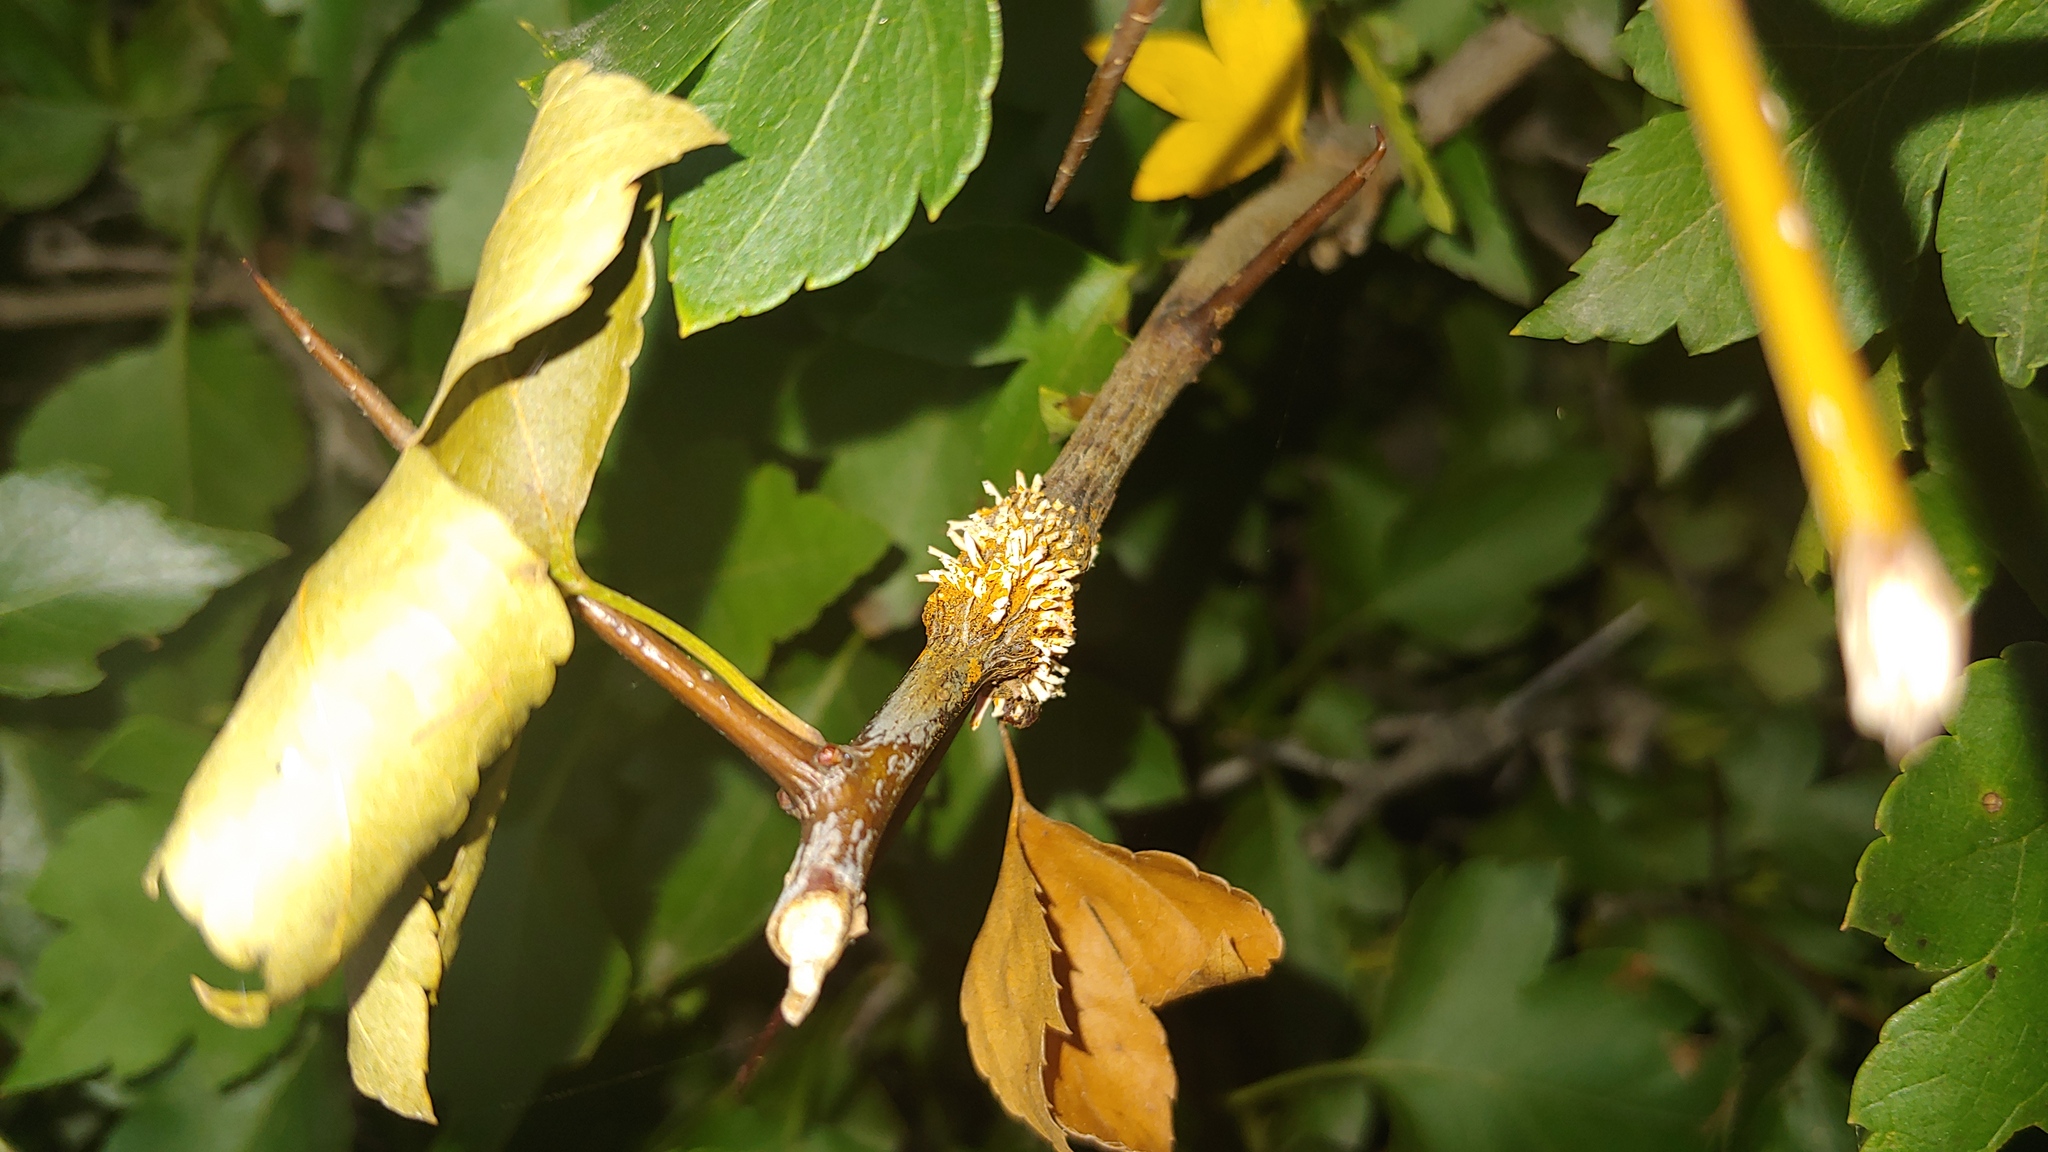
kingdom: Fungi
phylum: Basidiomycota
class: Pucciniomycetes
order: Pucciniales
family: Gymnosporangiaceae
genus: Gymnosporangium
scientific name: Gymnosporangium globosum
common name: Juniper-hawthorn rust
